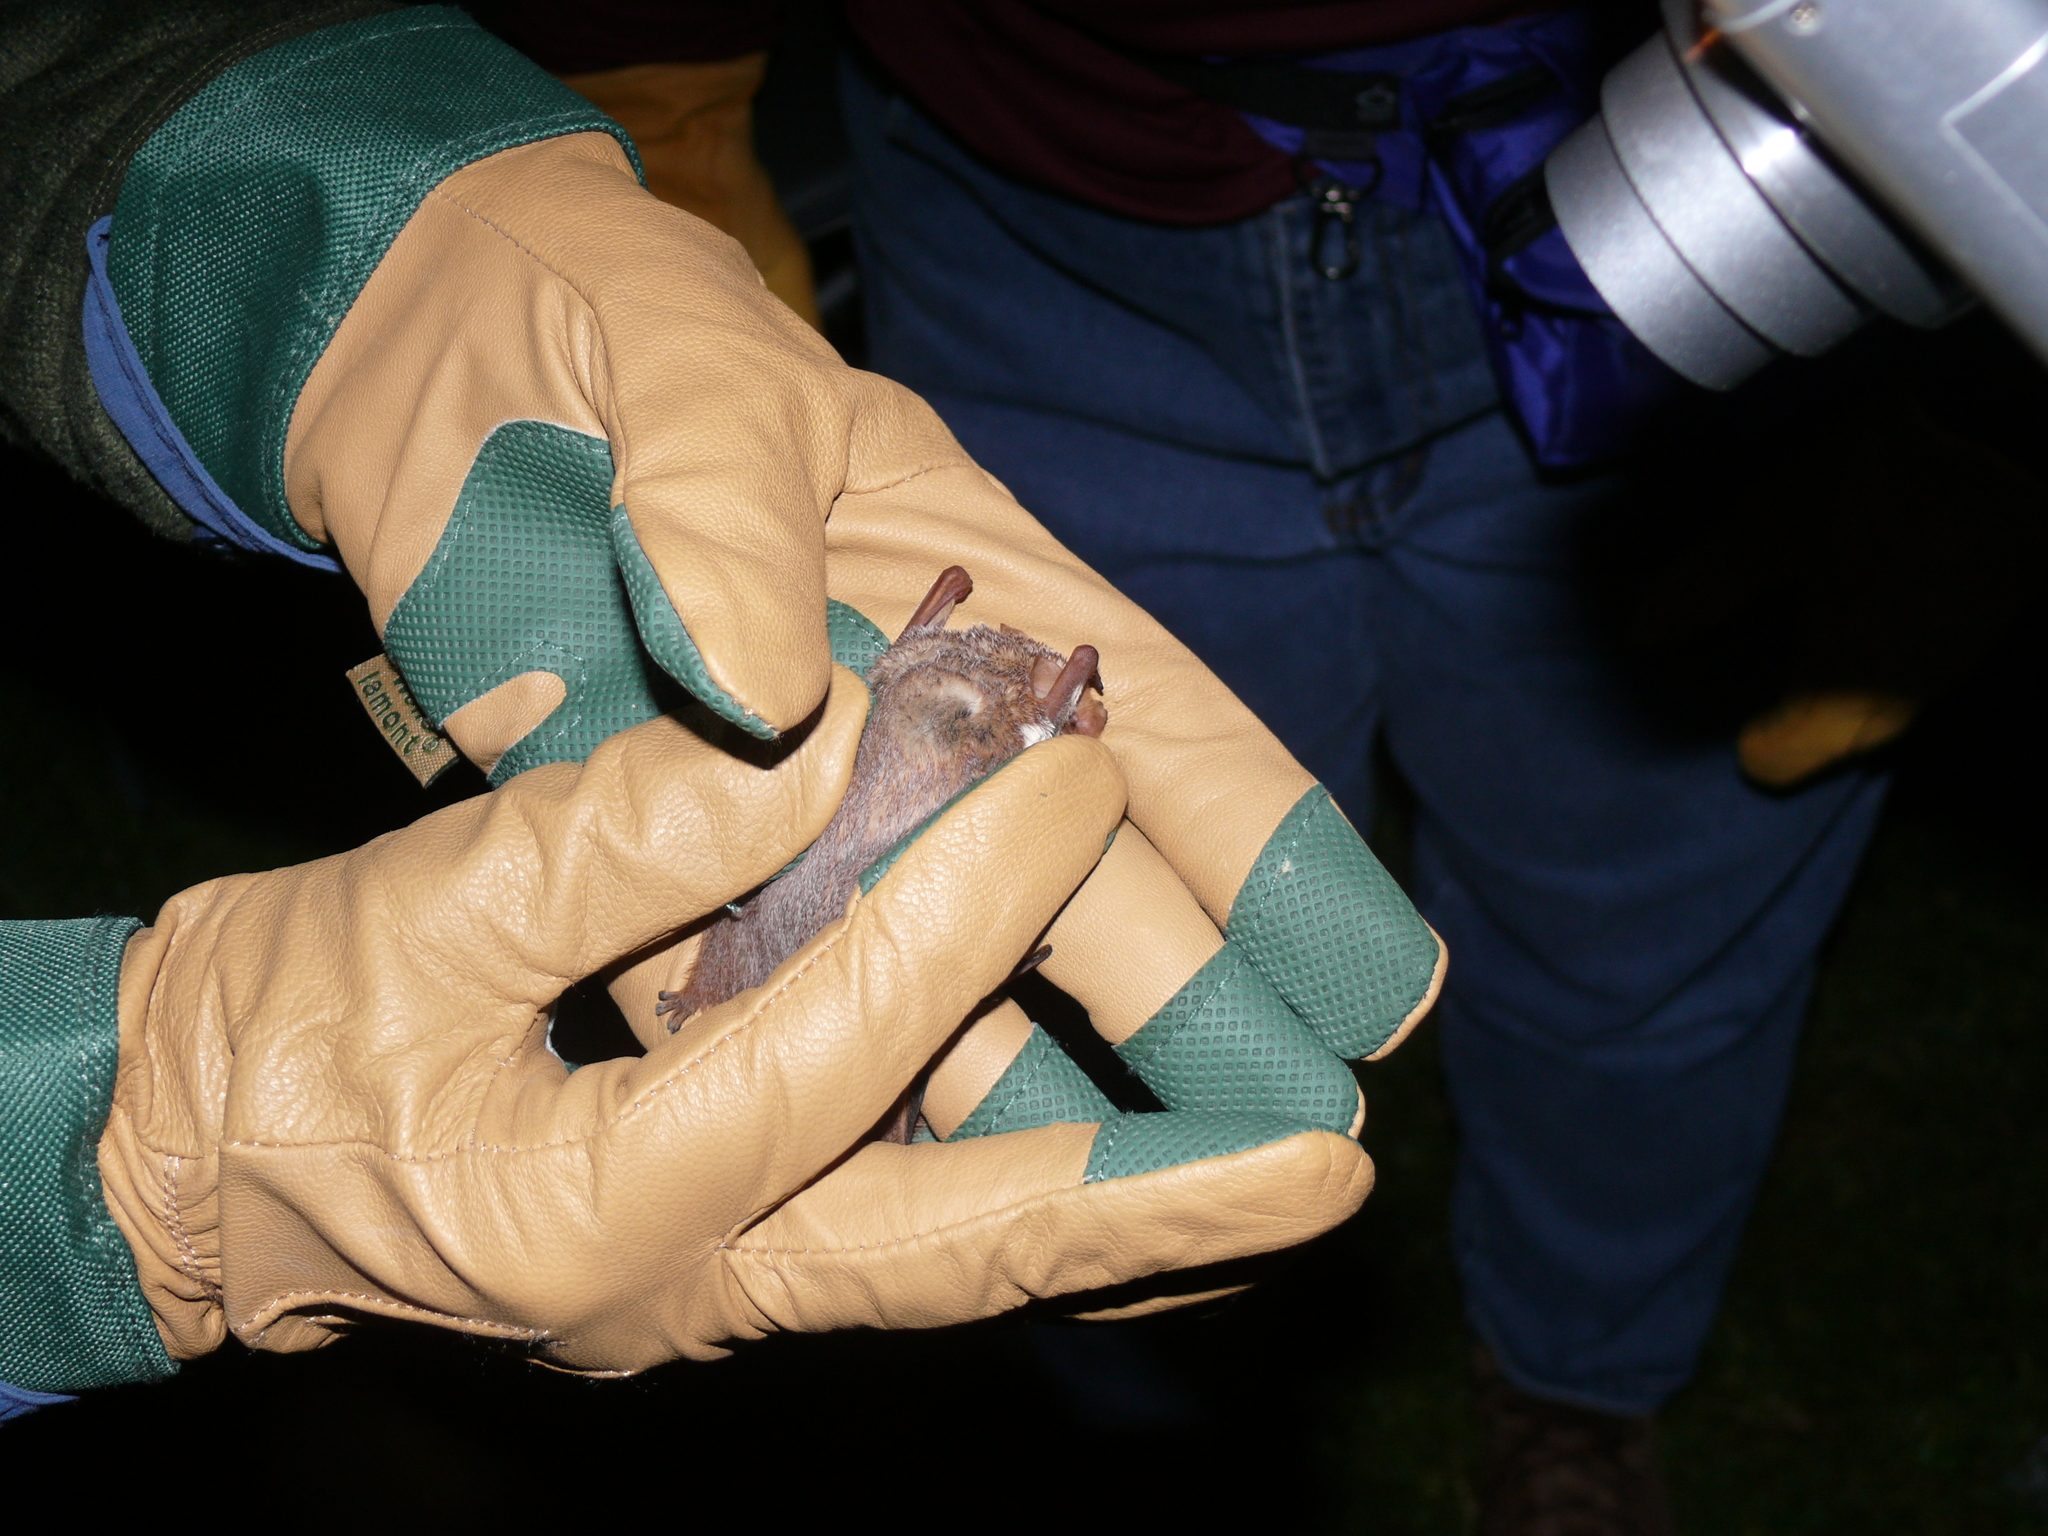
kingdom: Animalia
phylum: Chordata
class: Mammalia
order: Chiroptera
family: Vespertilionidae
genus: Lasiurus
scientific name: Lasiurus borealis
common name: Eastern red bat
